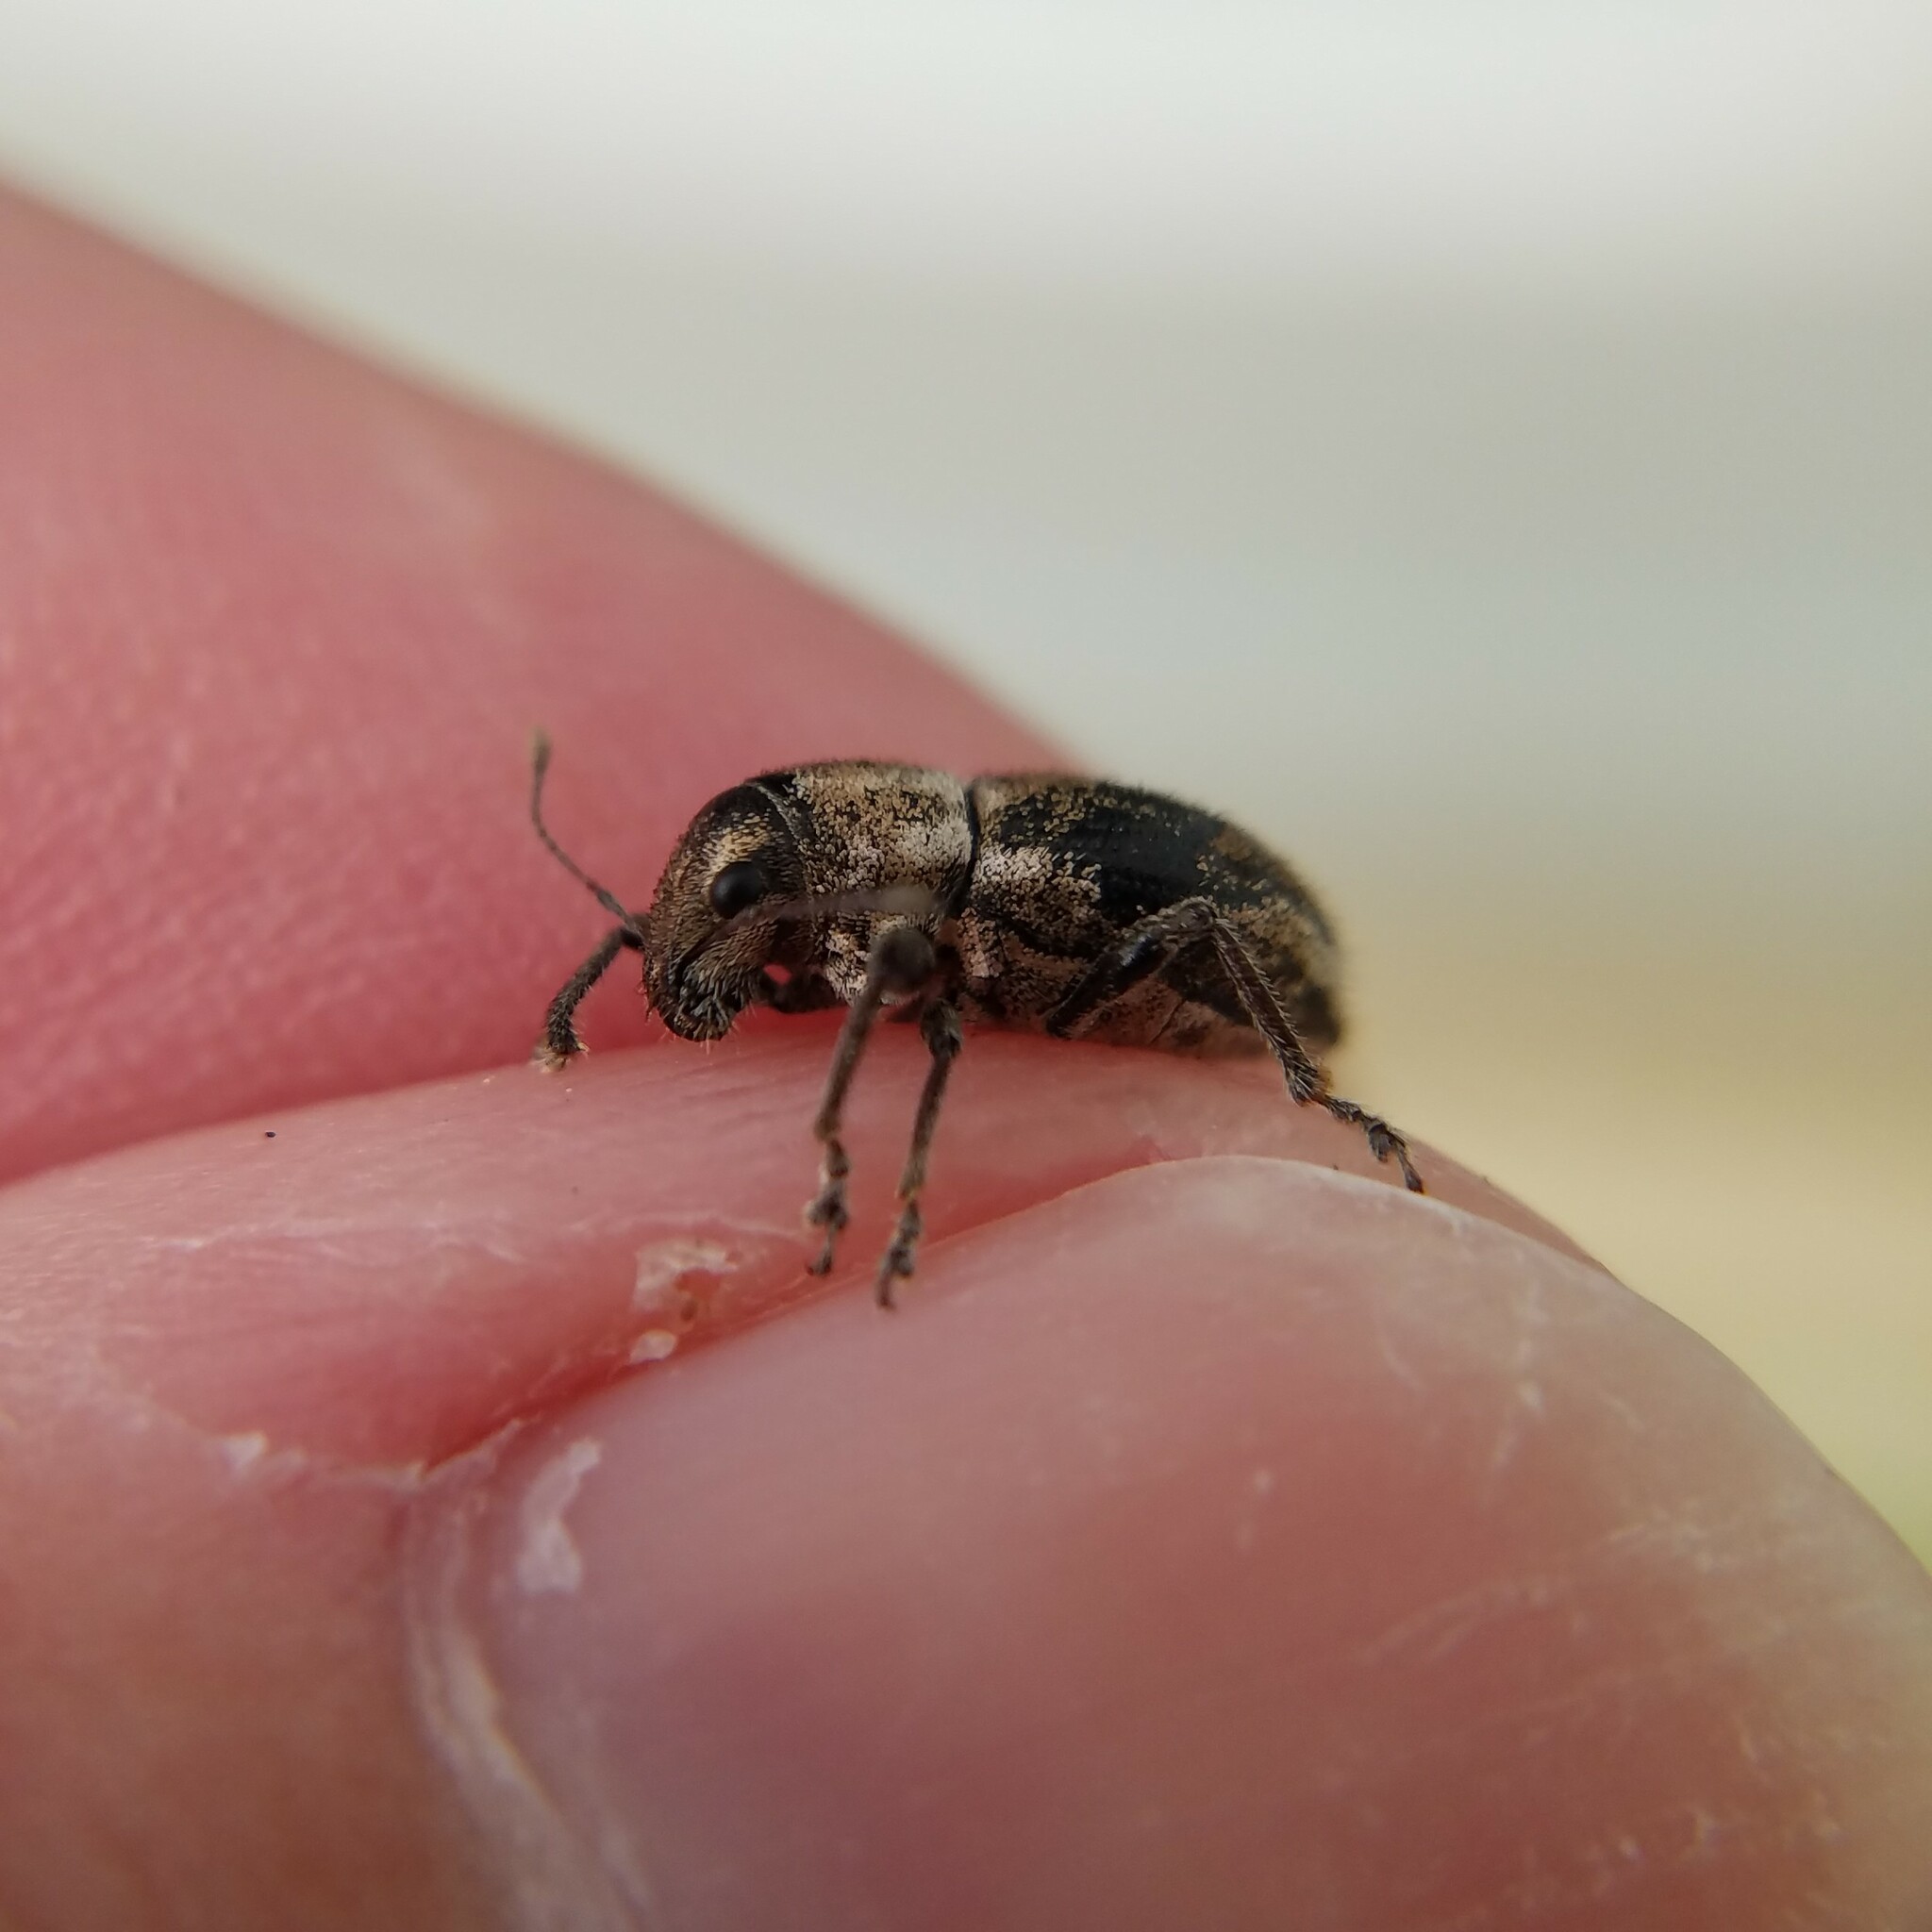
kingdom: Animalia
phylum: Arthropoda
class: Insecta
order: Coleoptera
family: Curculionidae
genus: Naupactus
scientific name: Naupactus peregrinus
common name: Whitefringed beetle
